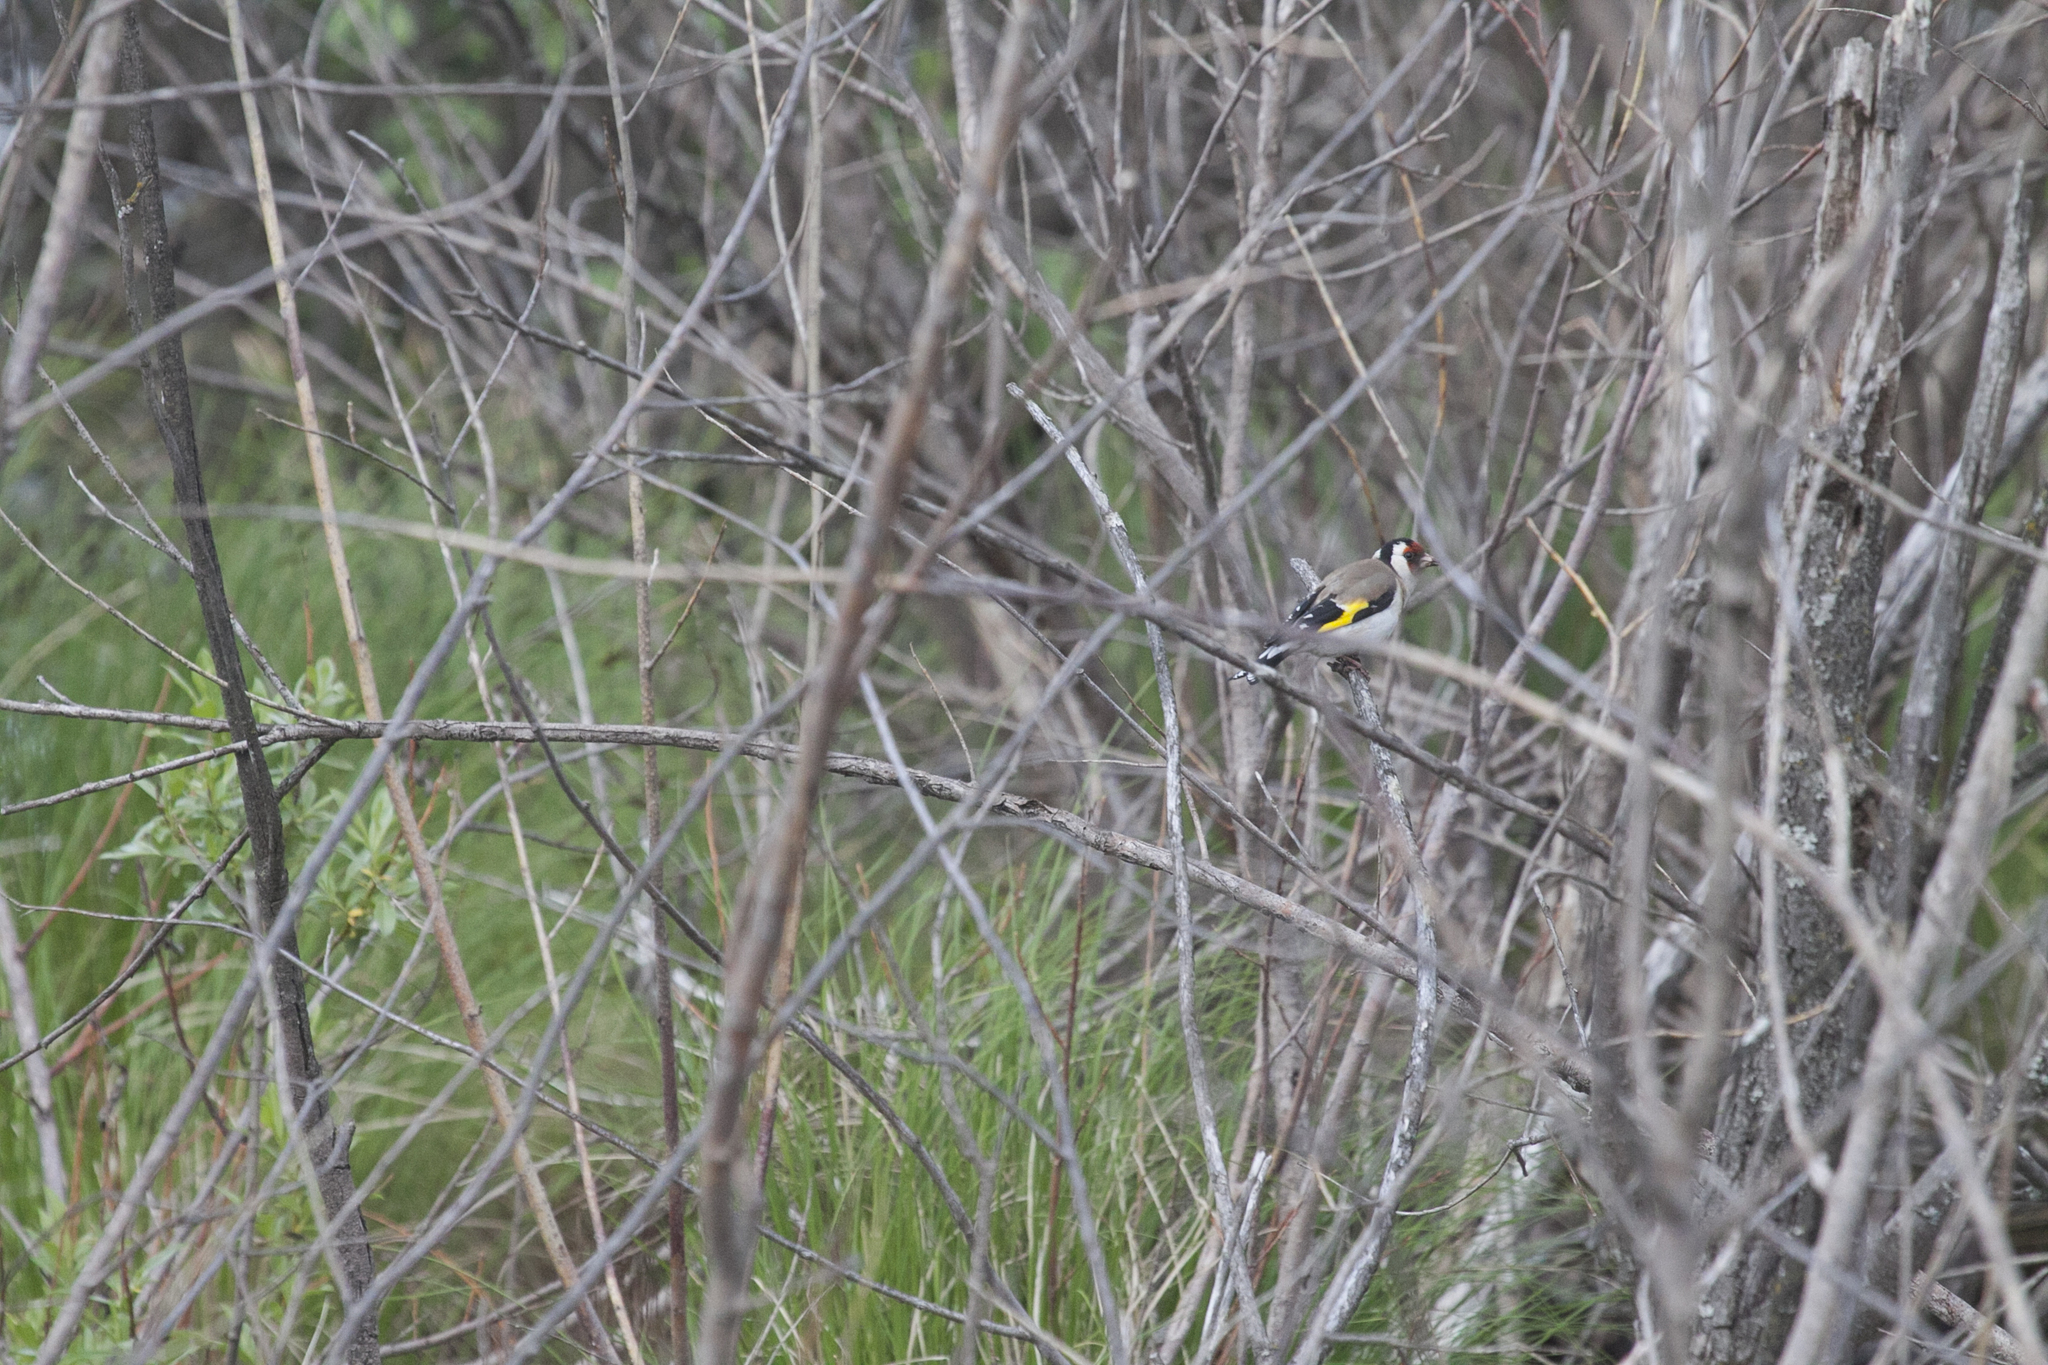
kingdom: Animalia
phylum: Chordata
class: Aves
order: Passeriformes
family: Fringillidae
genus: Carduelis
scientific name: Carduelis carduelis
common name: European goldfinch
